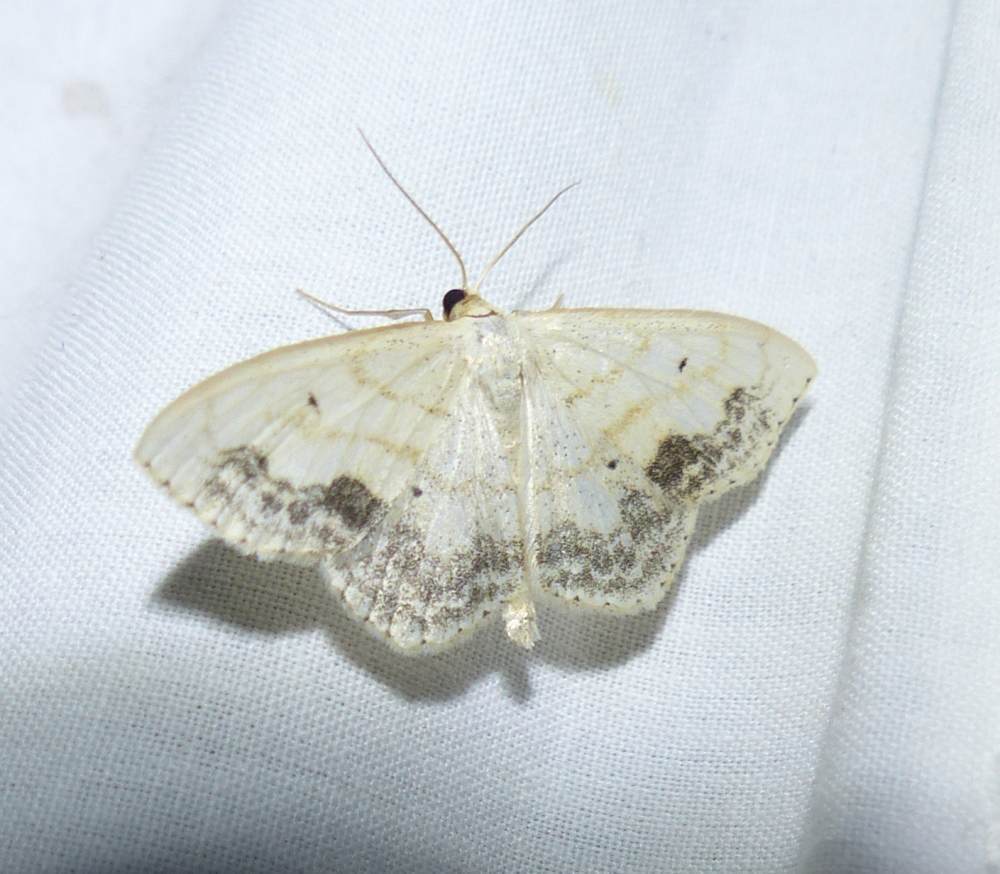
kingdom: Animalia
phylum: Arthropoda
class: Insecta
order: Lepidoptera
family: Geometridae
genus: Scopula
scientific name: Scopula limboundata
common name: Large lace border
